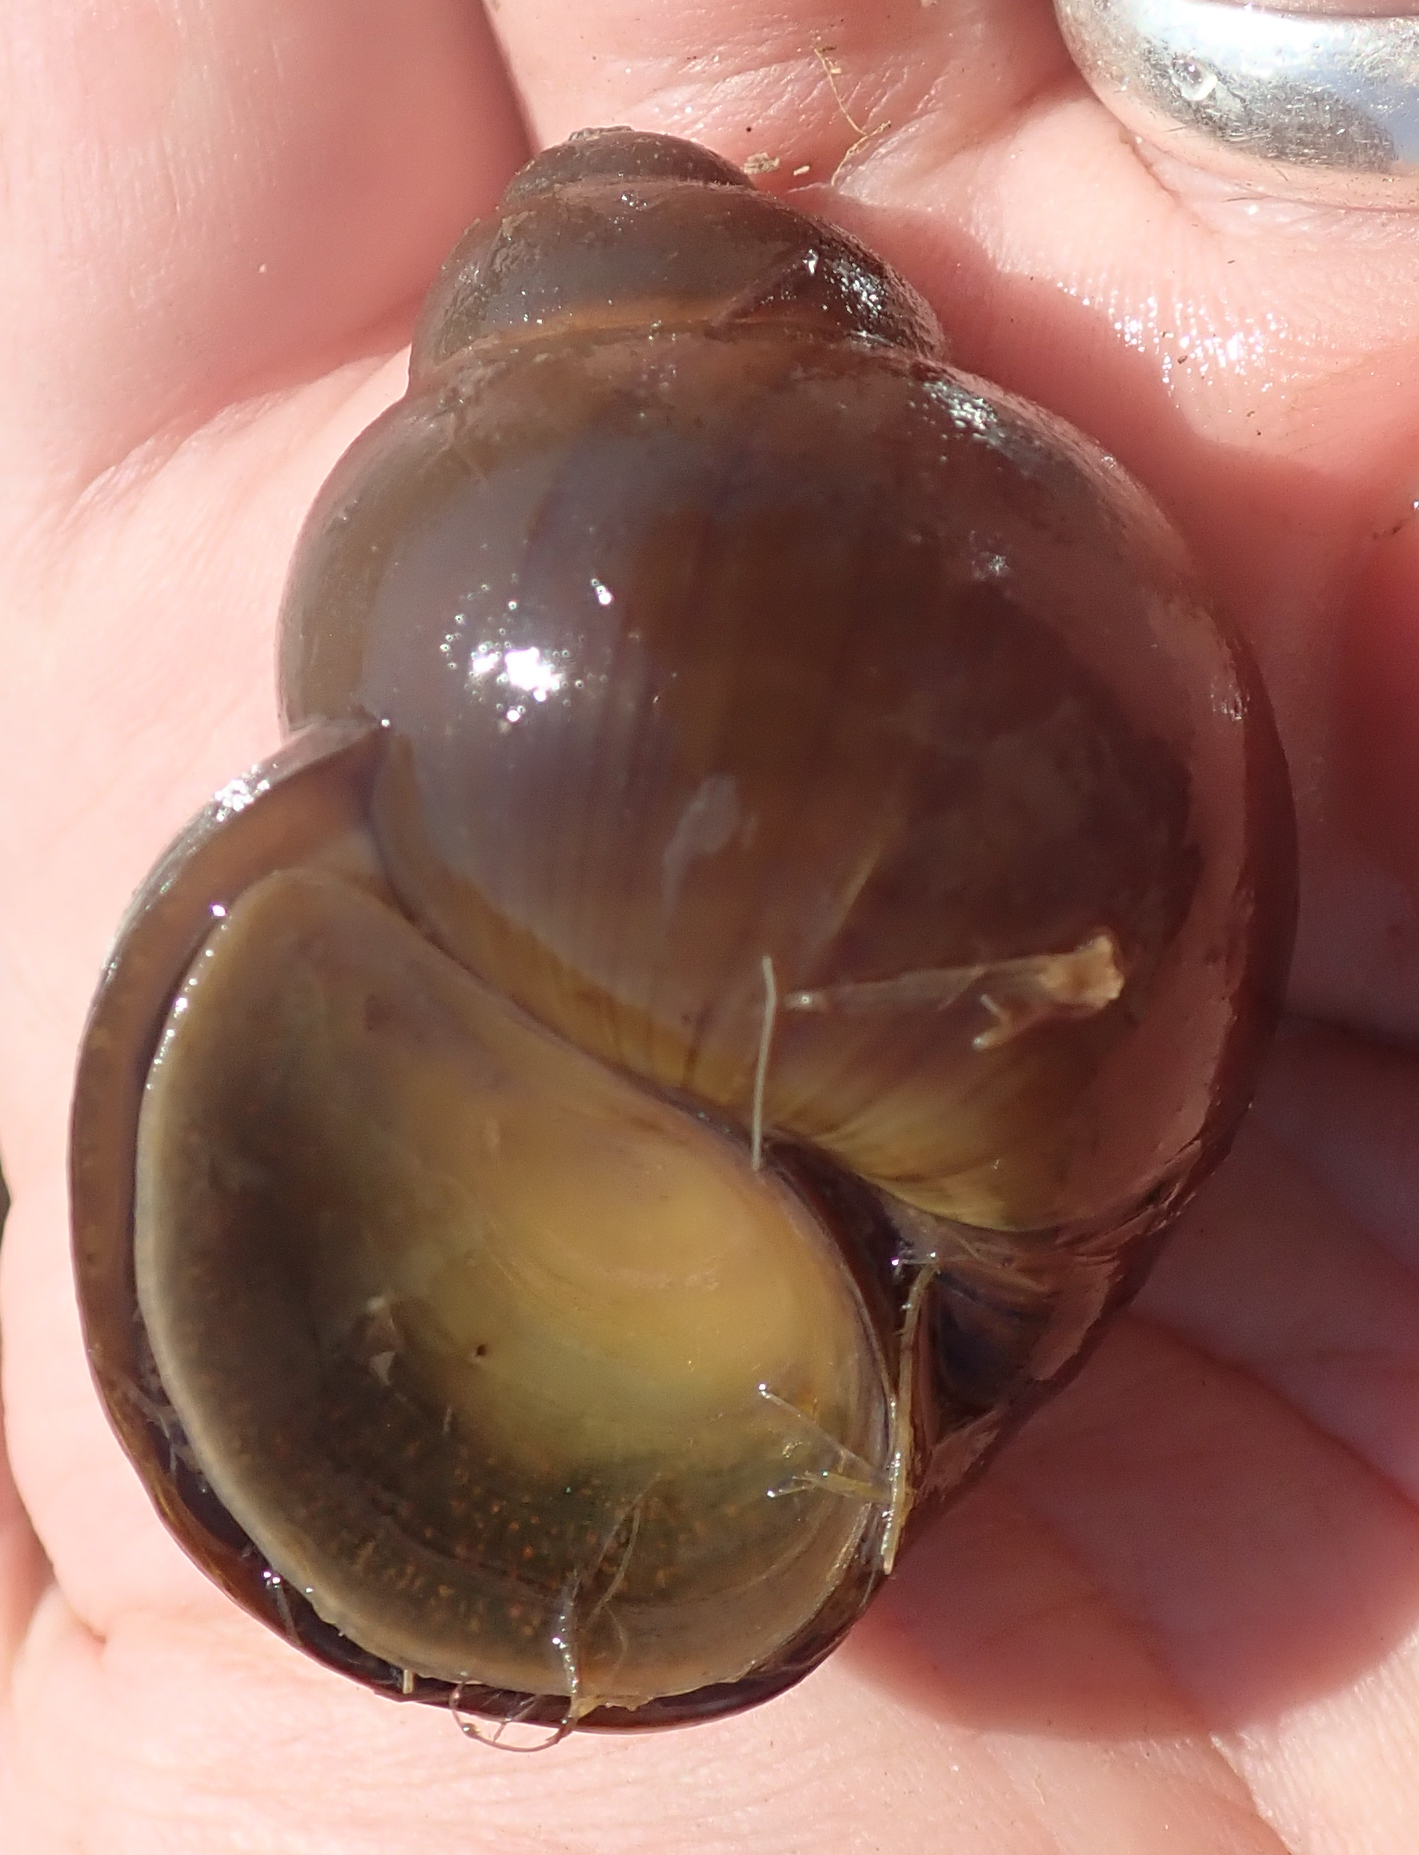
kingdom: Animalia
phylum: Mollusca
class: Gastropoda
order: Architaenioglossa
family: Ampullariidae
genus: Lanistes
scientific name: Lanistes ovum
